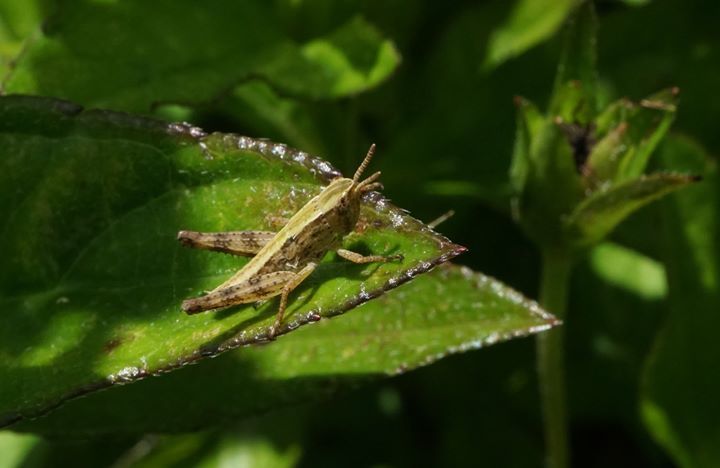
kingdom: Animalia
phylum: Arthropoda
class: Insecta
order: Orthoptera
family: Acrididae
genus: Dichromorpha
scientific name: Dichromorpha viridis
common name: Short-winged green grasshopper
